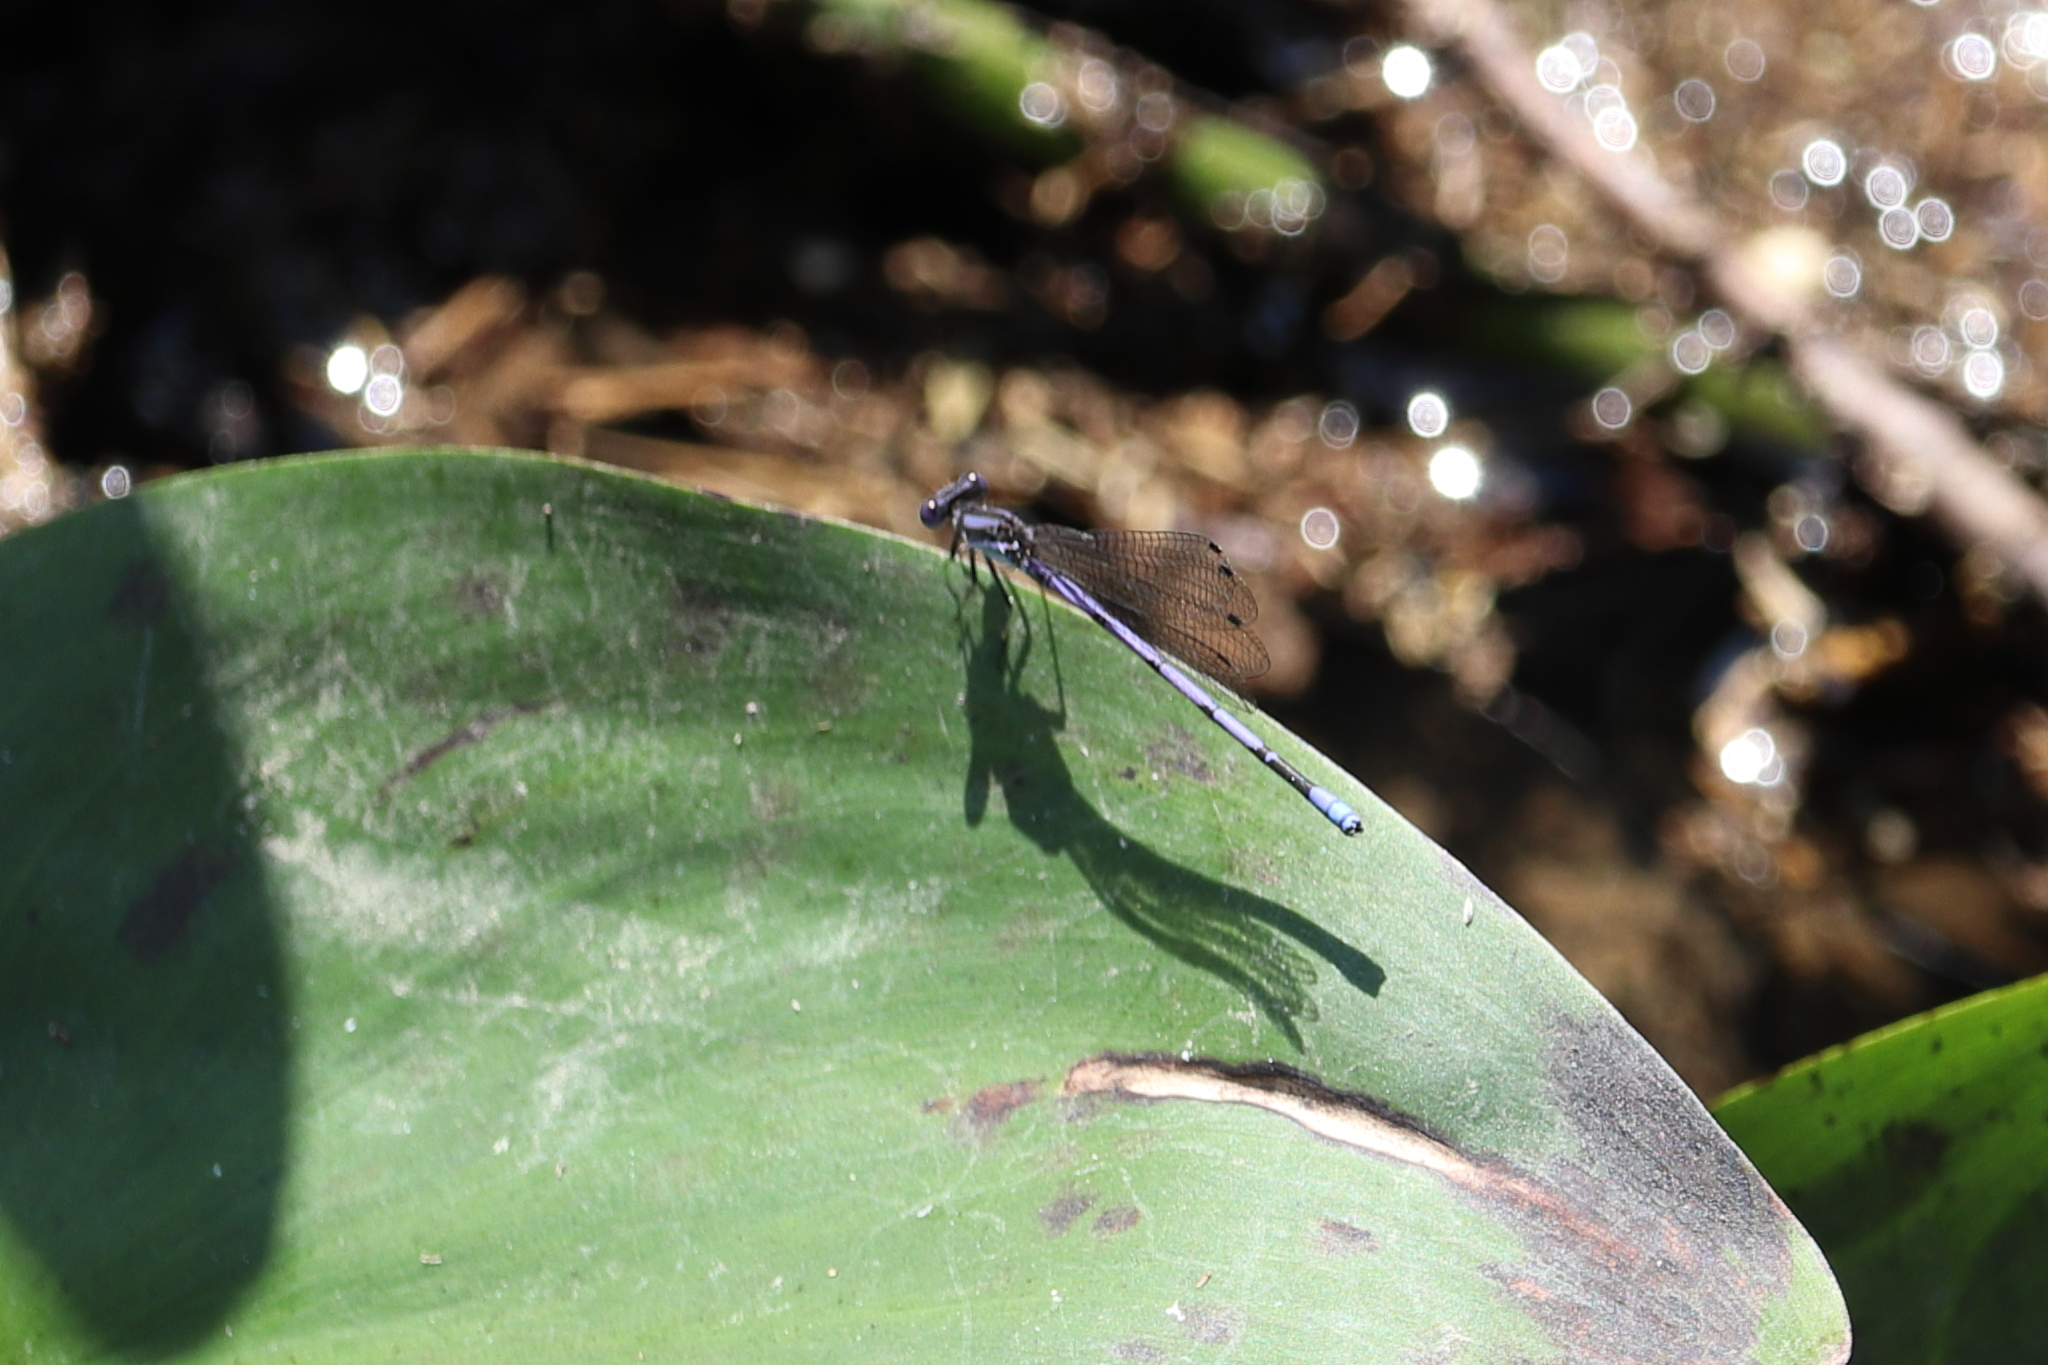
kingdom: Animalia
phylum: Arthropoda
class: Insecta
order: Odonata
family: Coenagrionidae
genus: Argia
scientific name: Argia fumipennis
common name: Variable dancer
